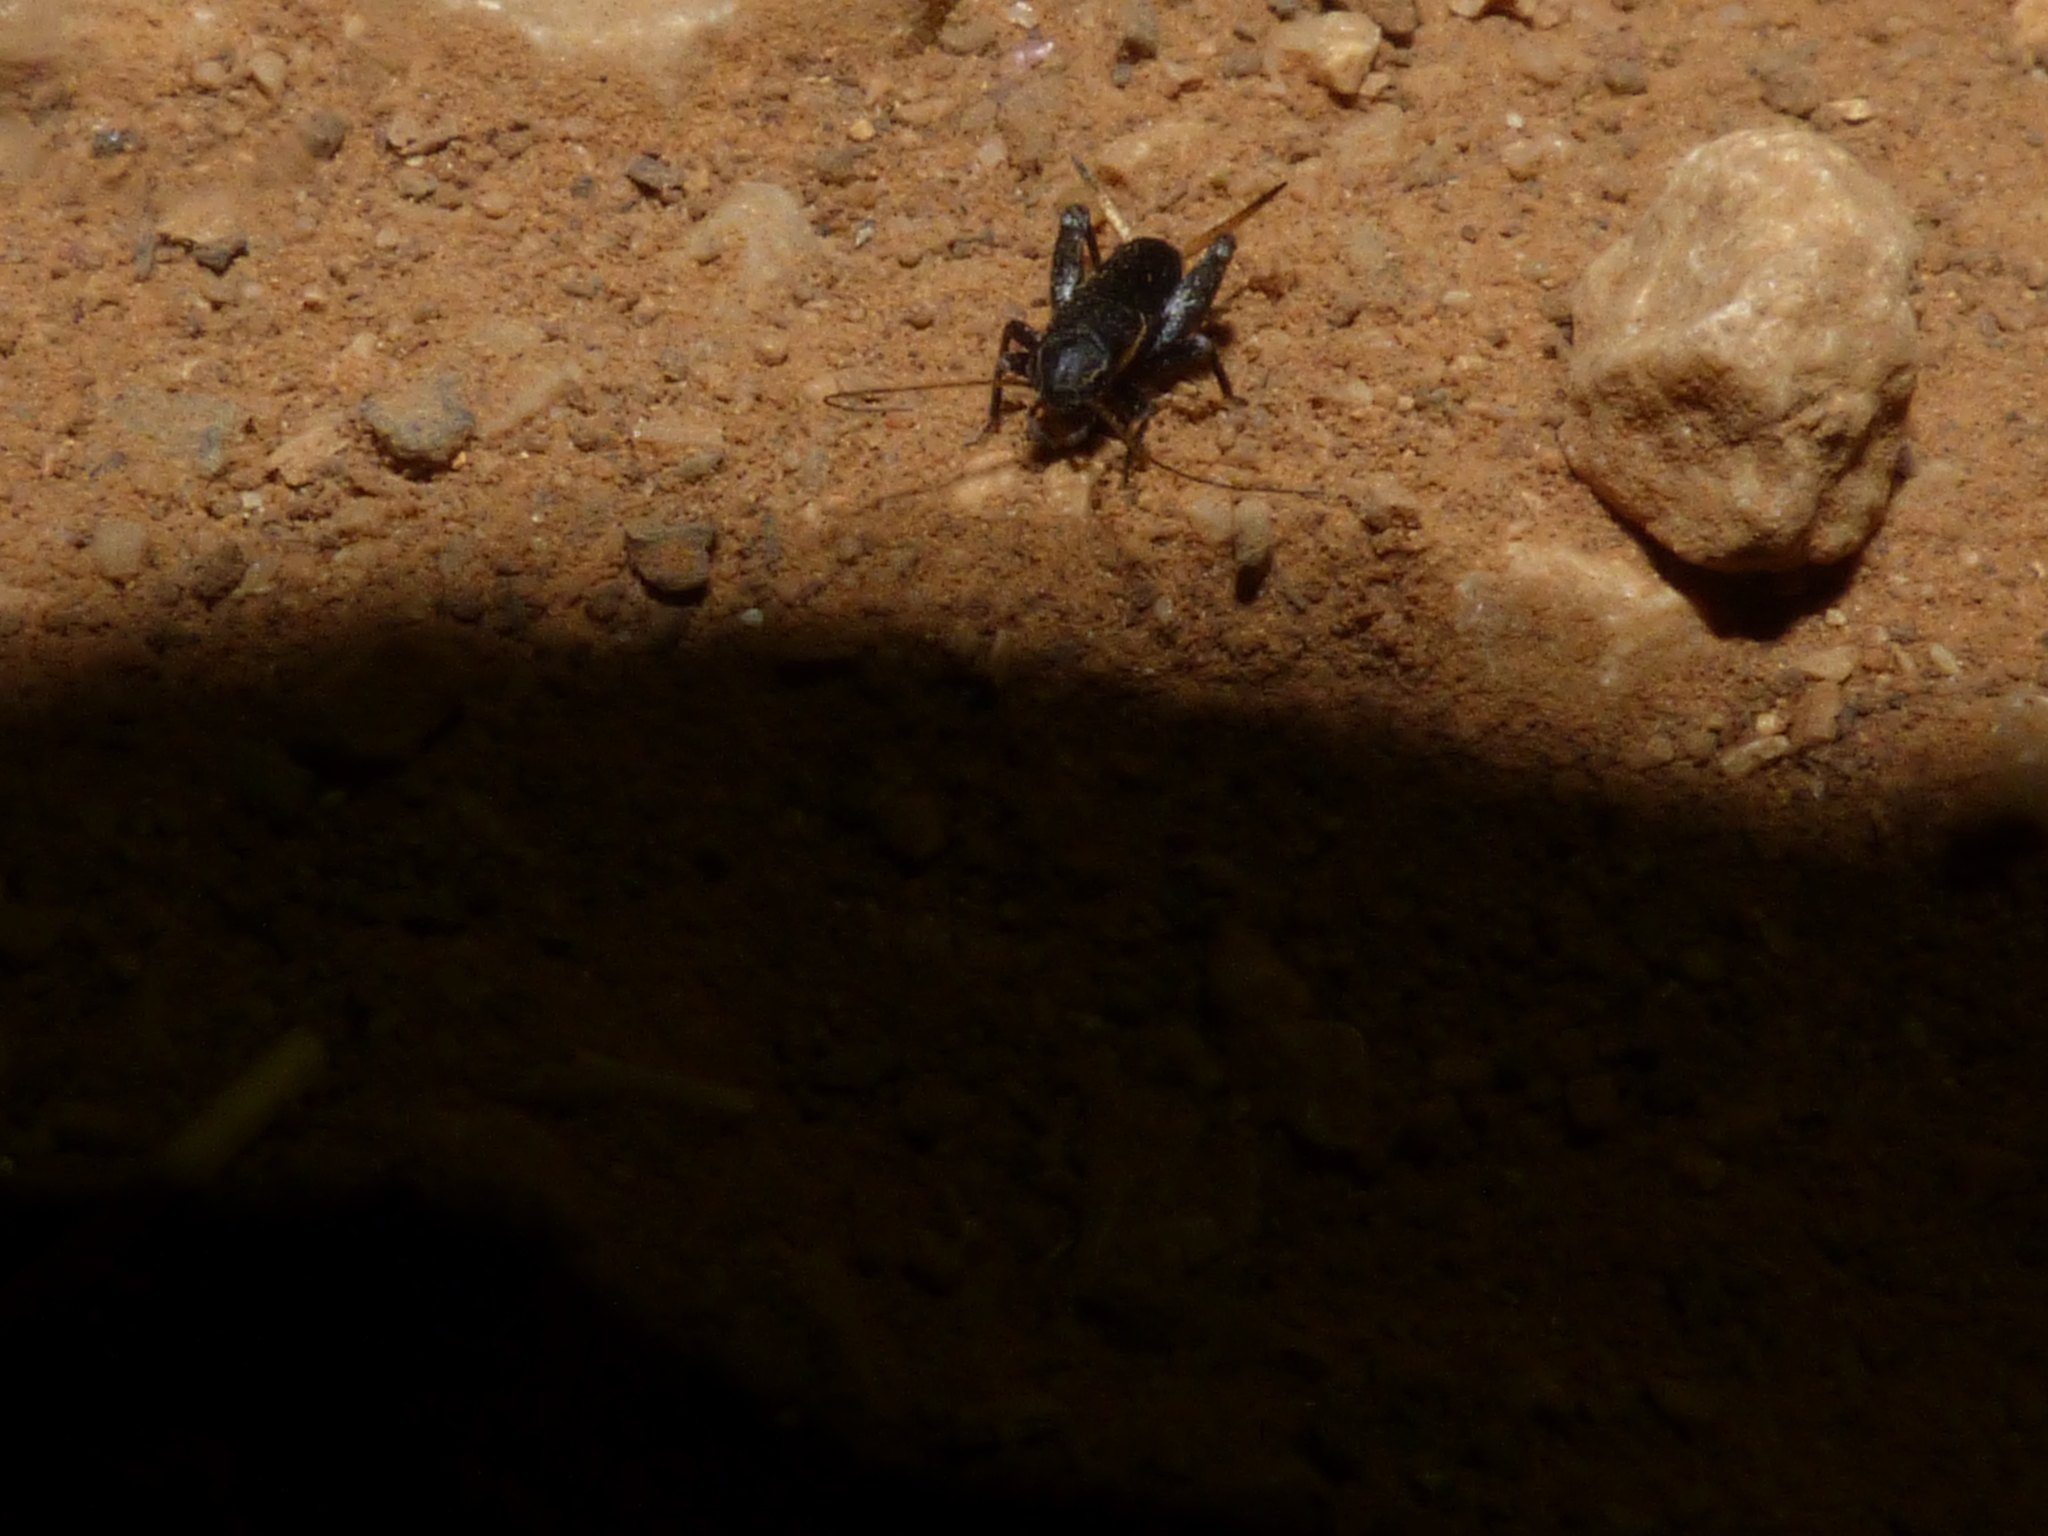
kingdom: Animalia
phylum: Arthropoda
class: Insecta
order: Orthoptera
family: Mogoplistidae
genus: Mogoplistes
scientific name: Mogoplistes brunneus
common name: Brown scale-cricket
